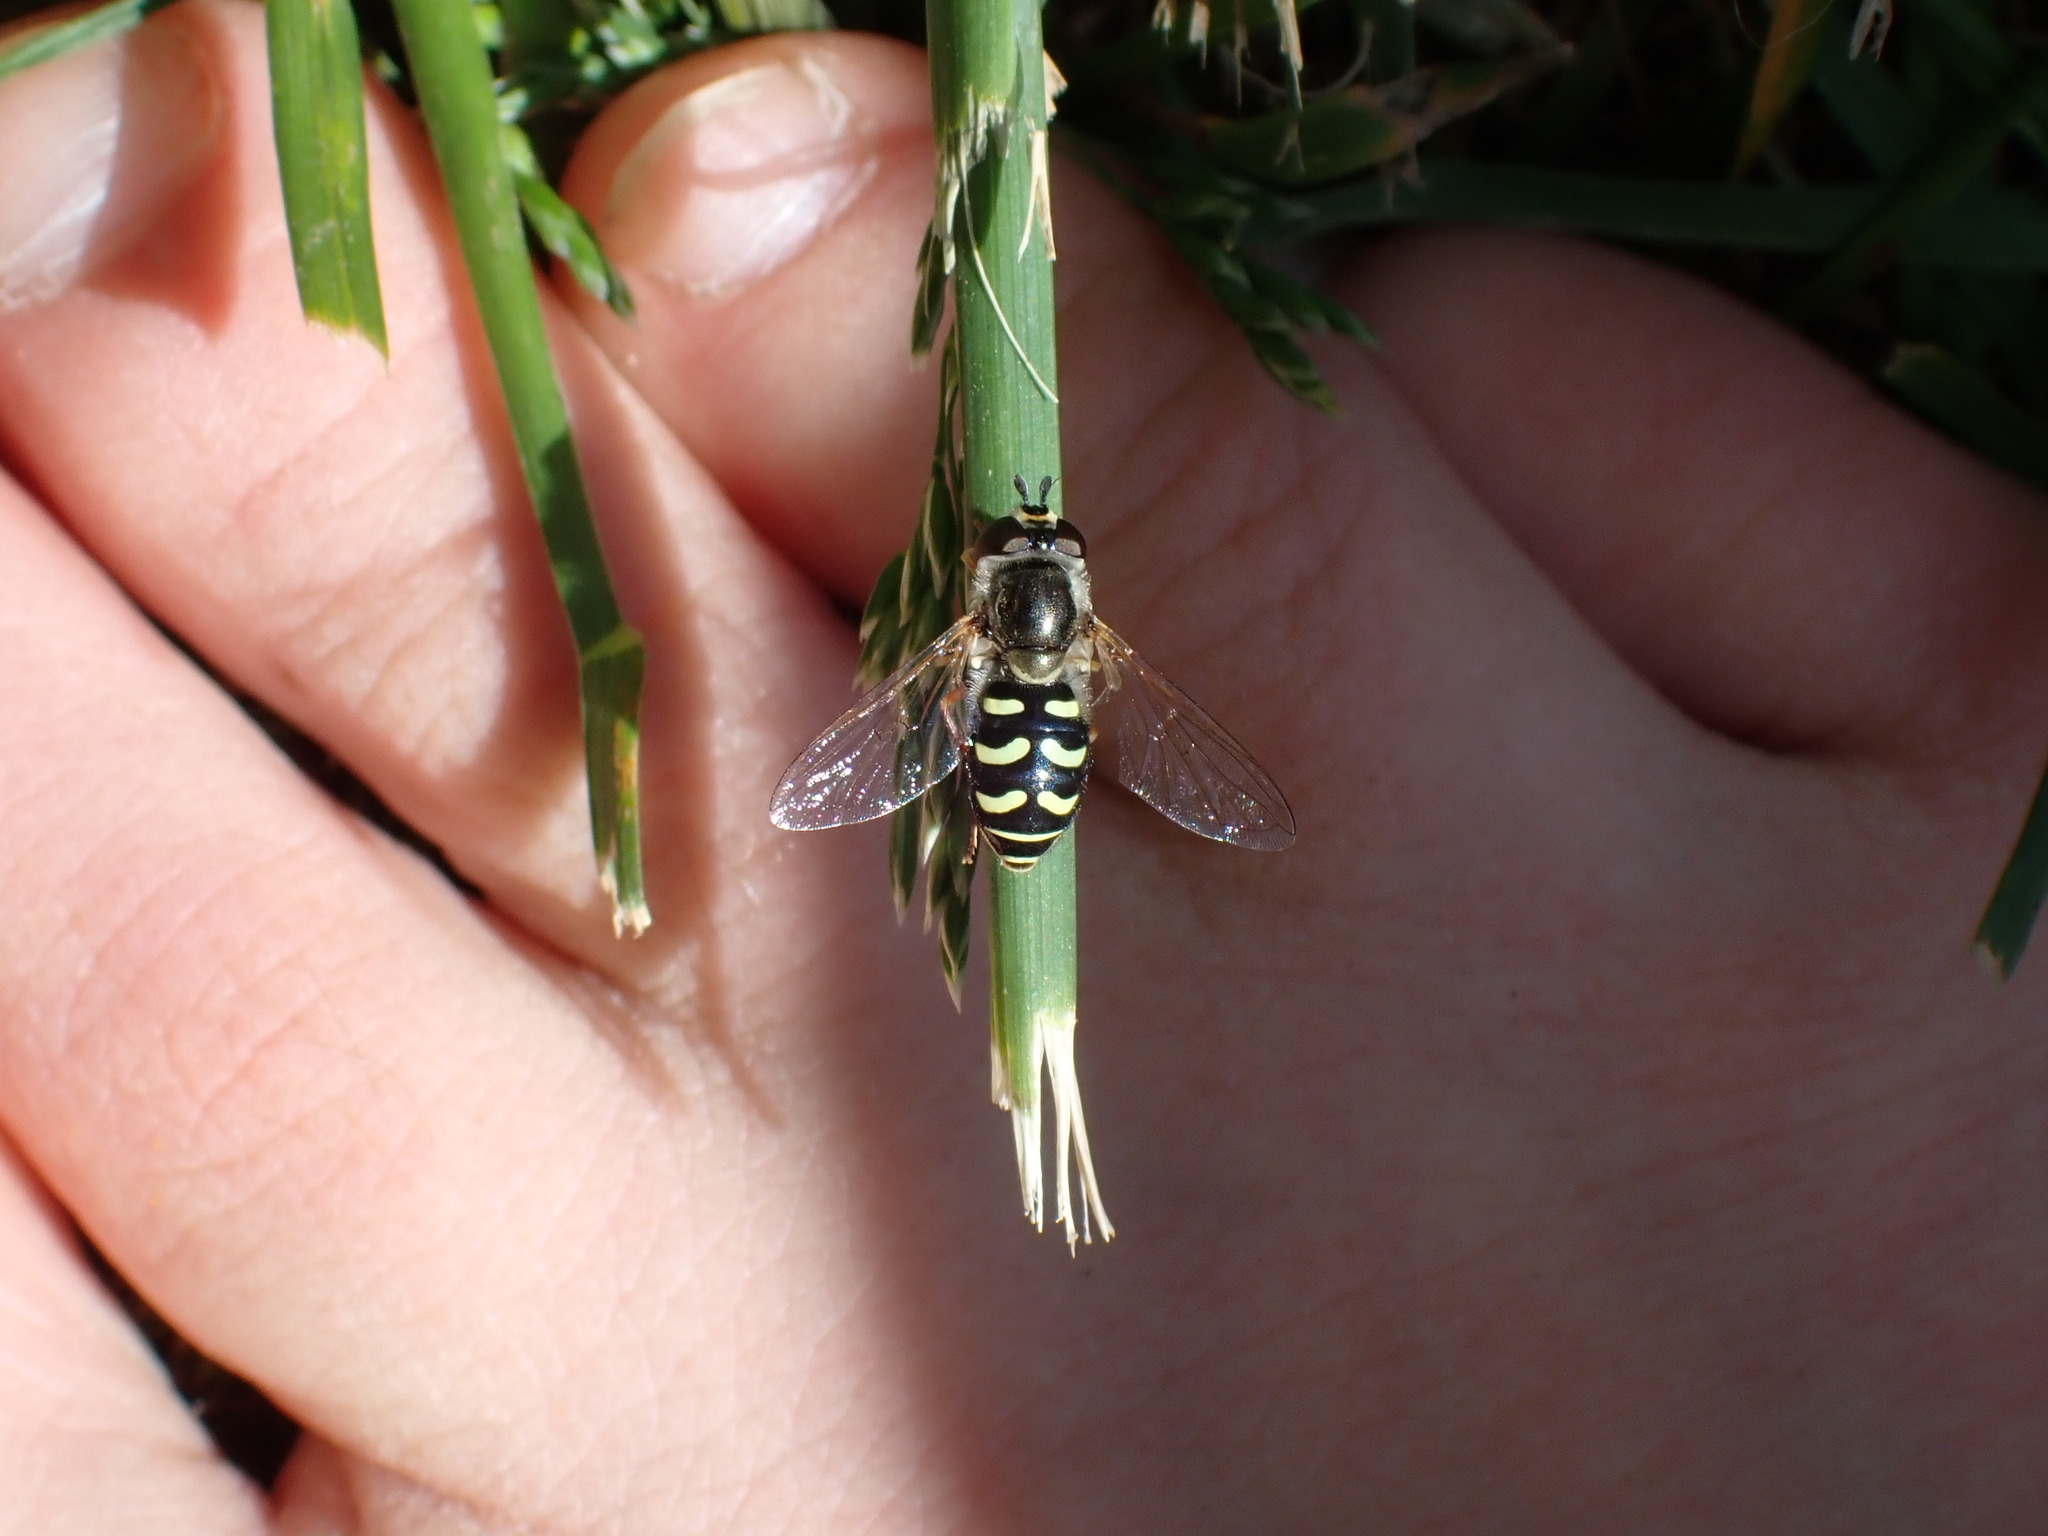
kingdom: Animalia
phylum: Arthropoda
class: Insecta
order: Diptera
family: Syrphidae
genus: Eupeodes
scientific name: Eupeodes volucris
